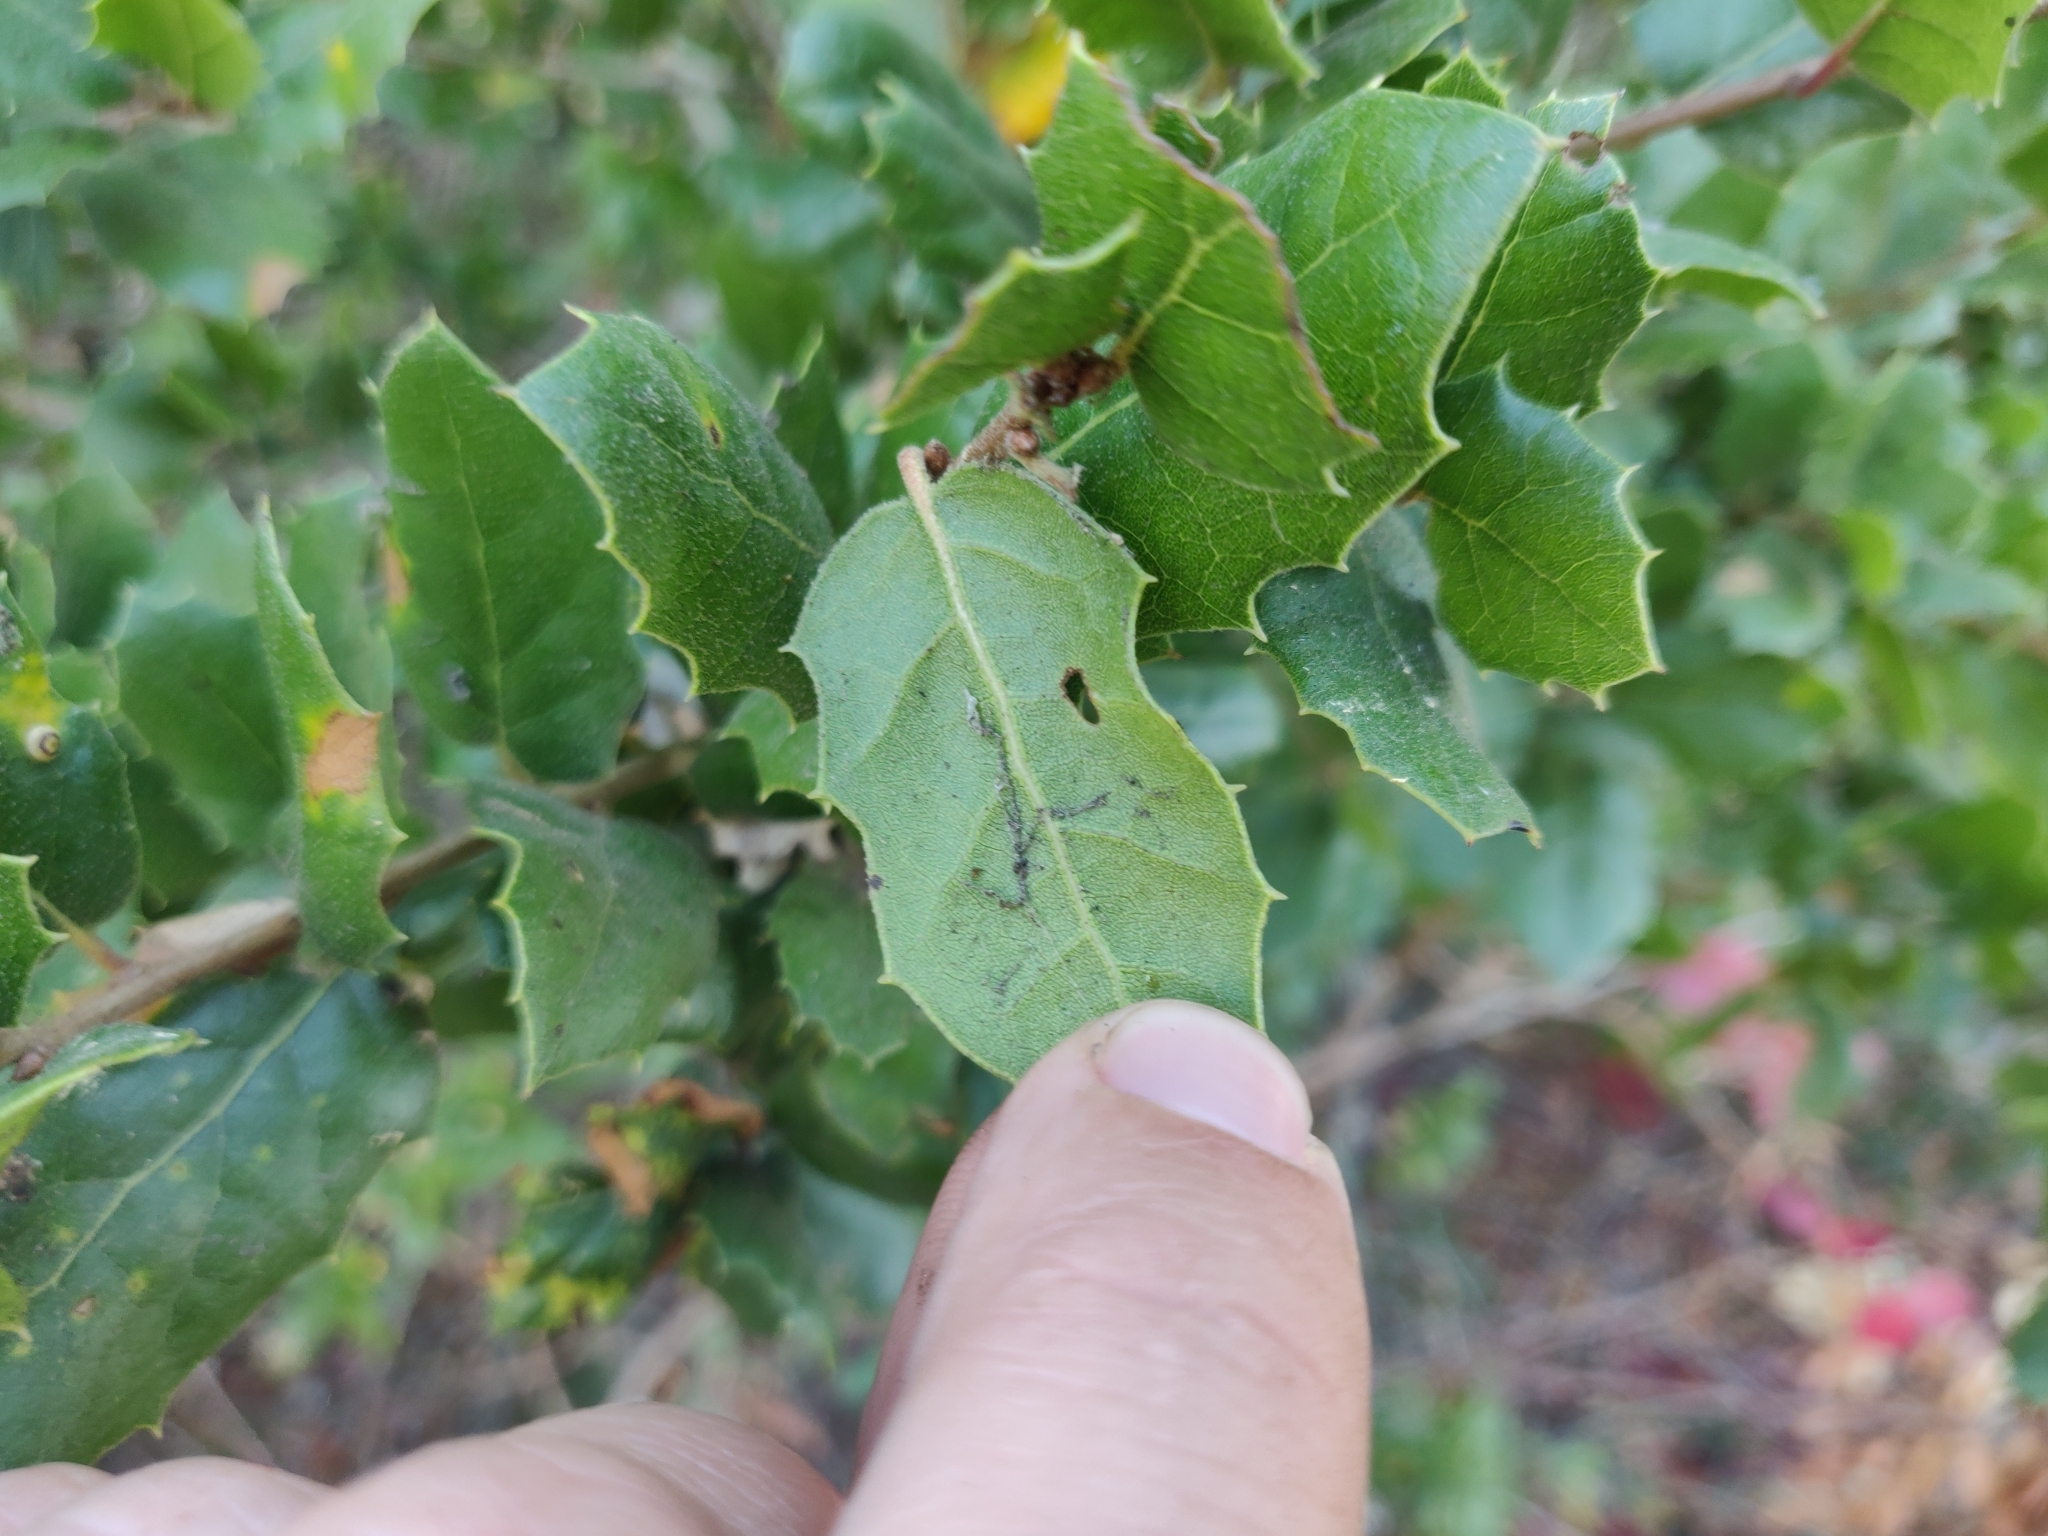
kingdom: Plantae
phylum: Tracheophyta
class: Magnoliopsida
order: Fagales
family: Fagaceae
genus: Quercus
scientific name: Quercus agrifolia
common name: California live oak
